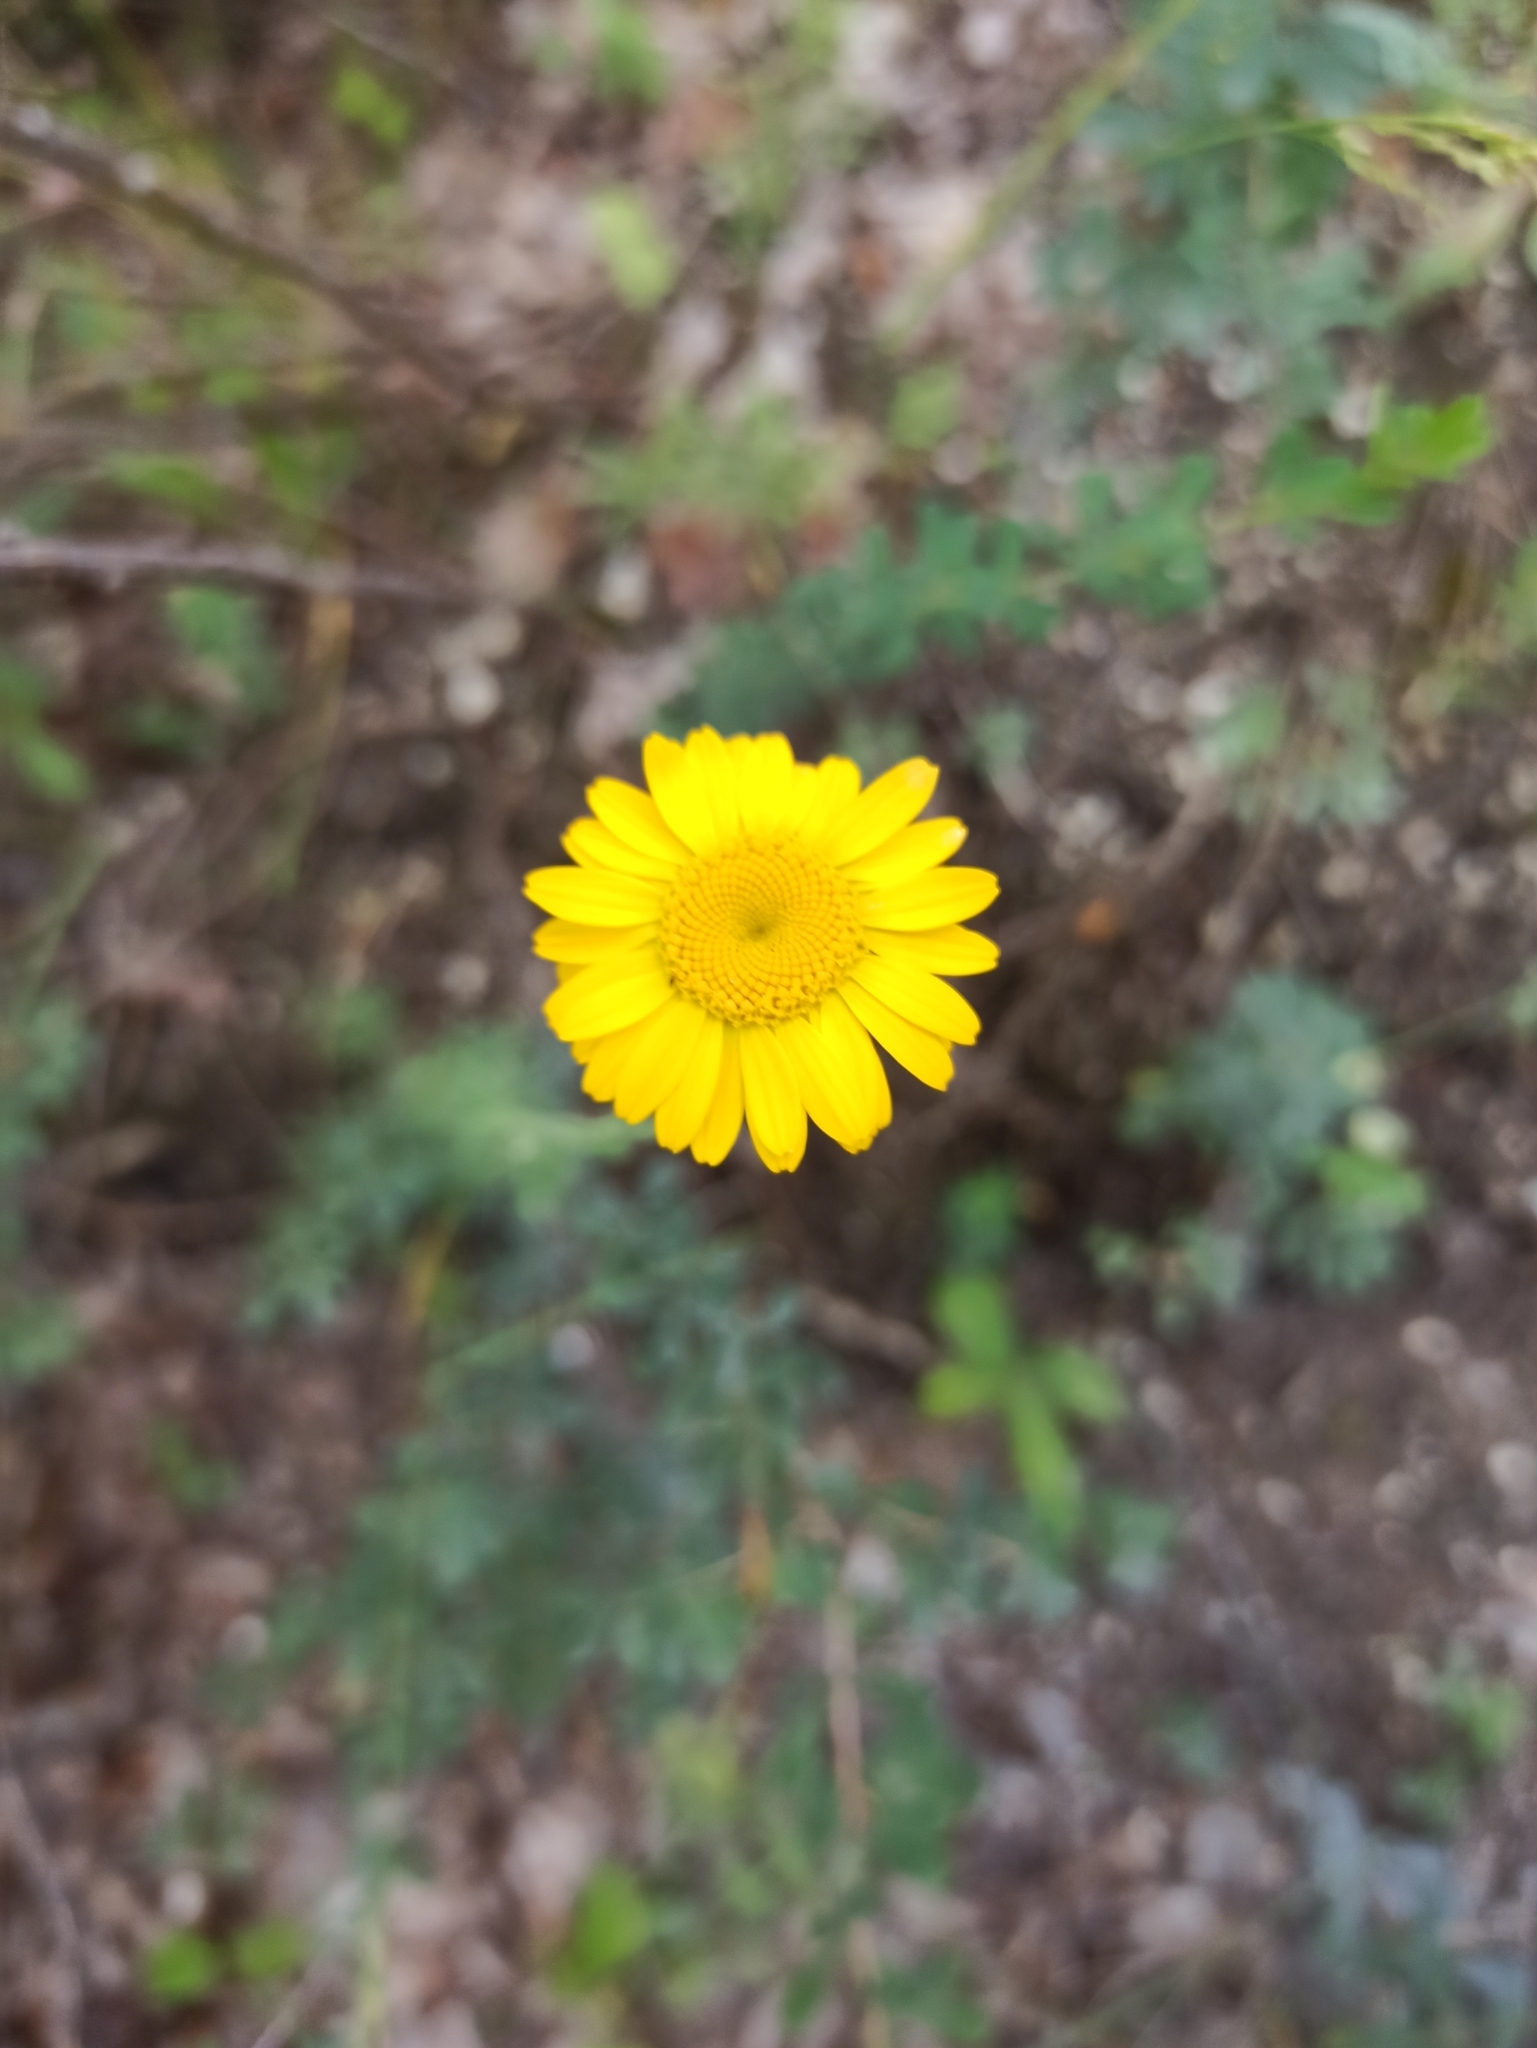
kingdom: Plantae
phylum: Tracheophyta
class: Magnoliopsida
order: Asterales
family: Asteraceae
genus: Cota
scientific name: Cota tinctoria
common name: Golden chamomile
